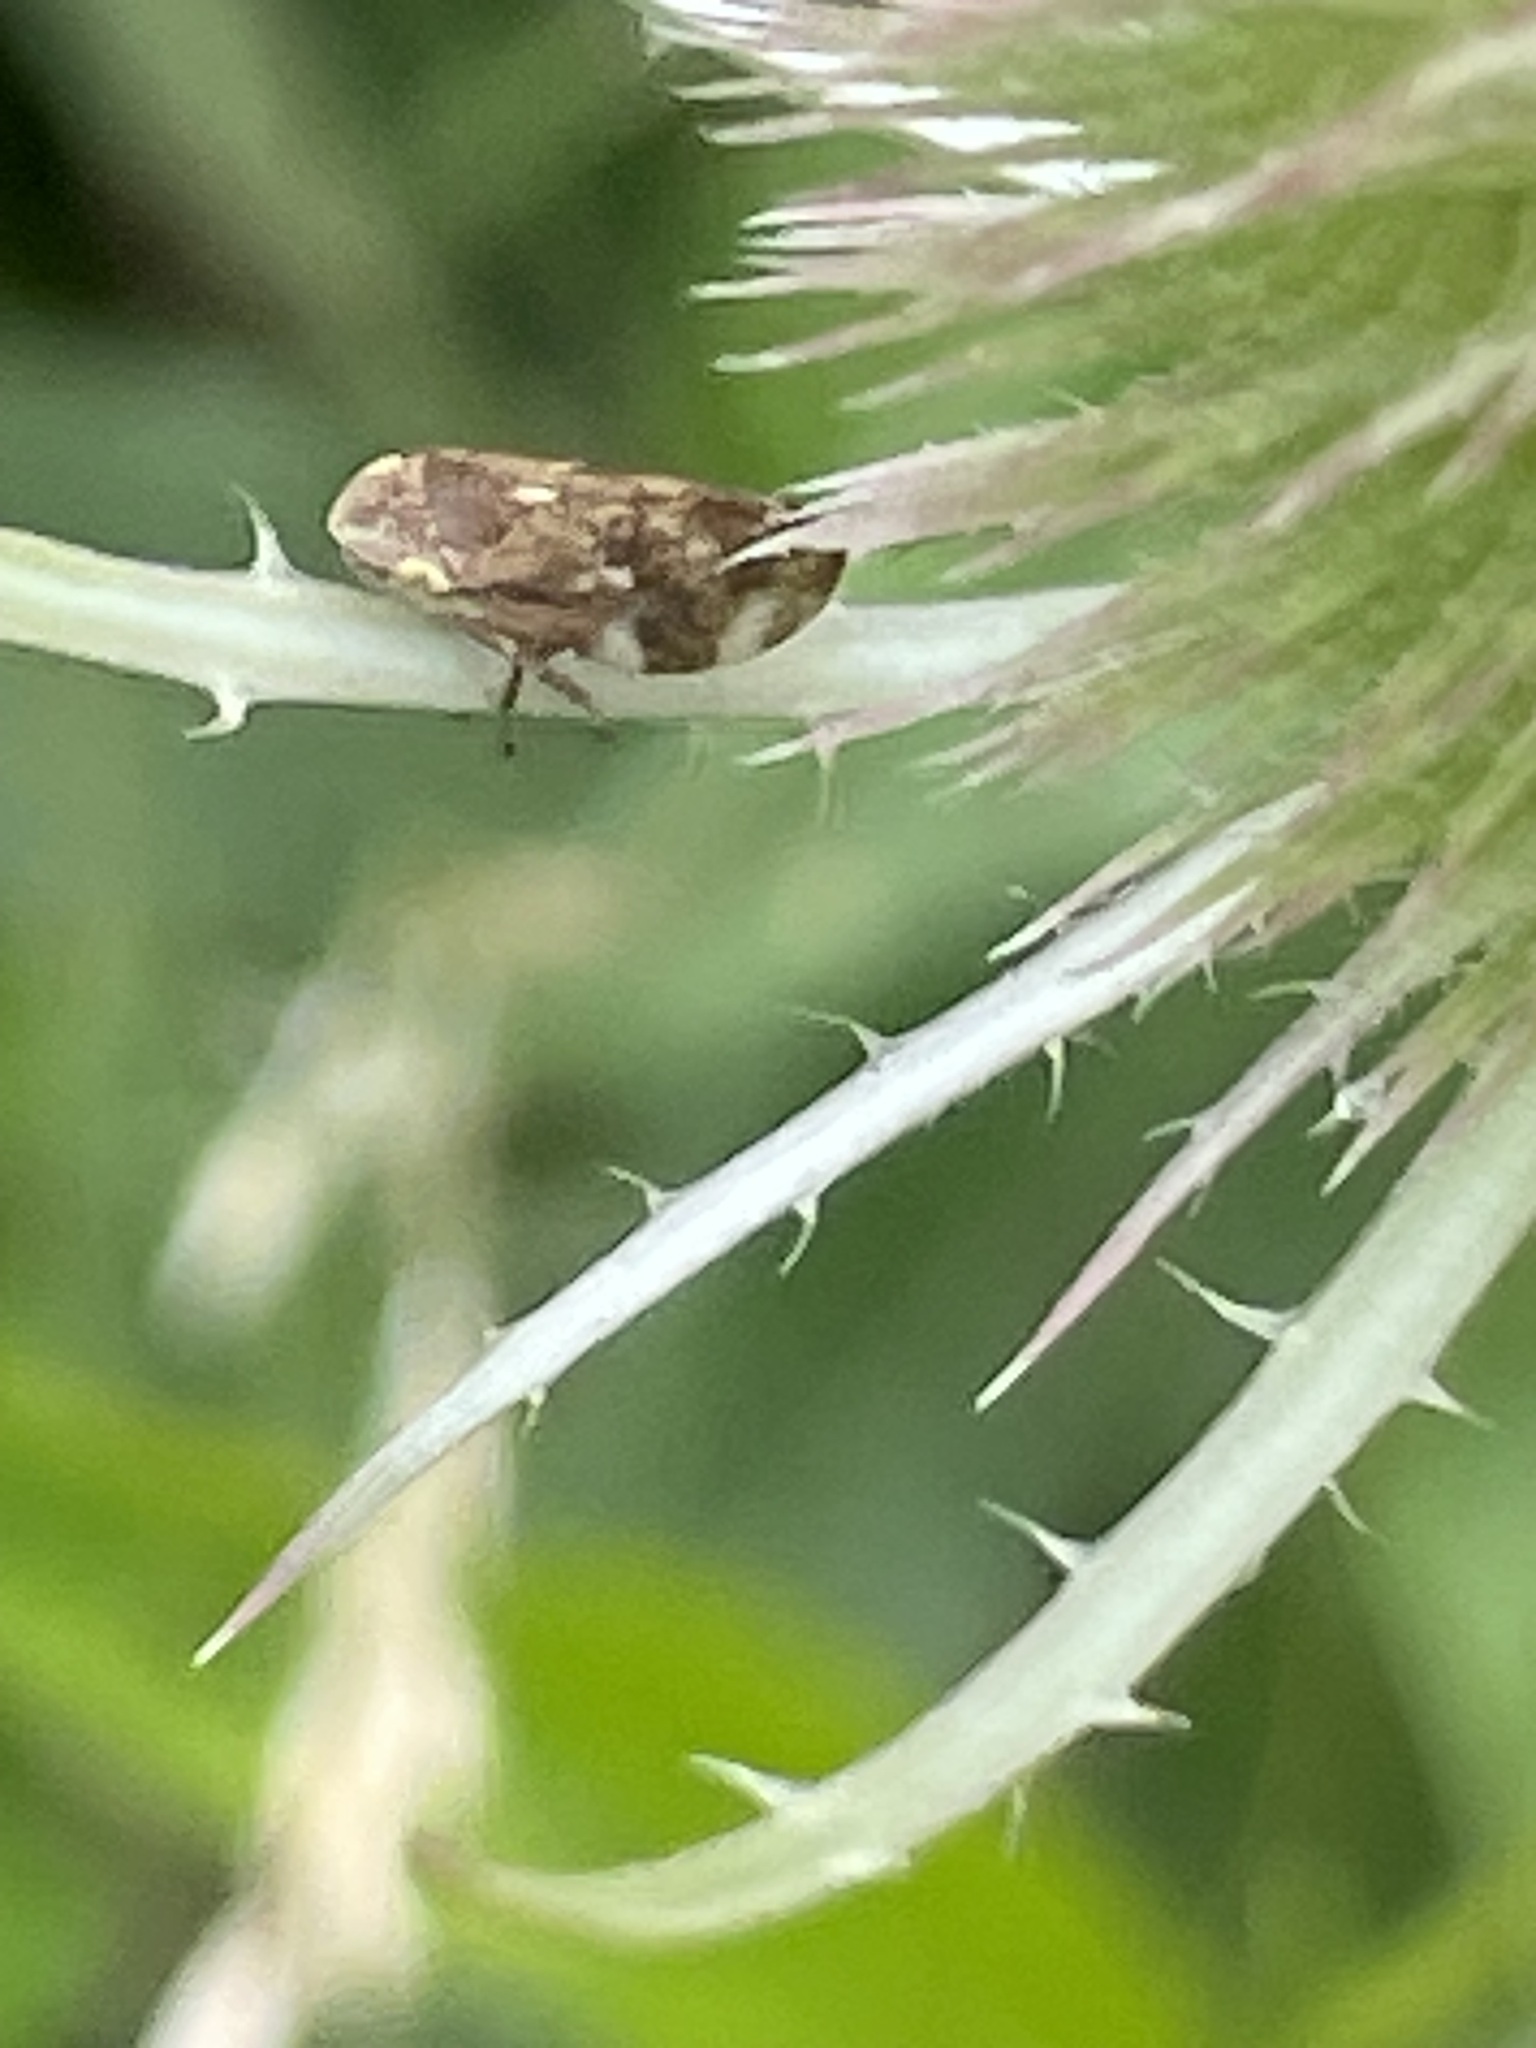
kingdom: Animalia
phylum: Arthropoda
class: Insecta
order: Hemiptera
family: Aphrophoridae
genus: Philaenus
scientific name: Philaenus spumarius
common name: Meadow spittlebug
